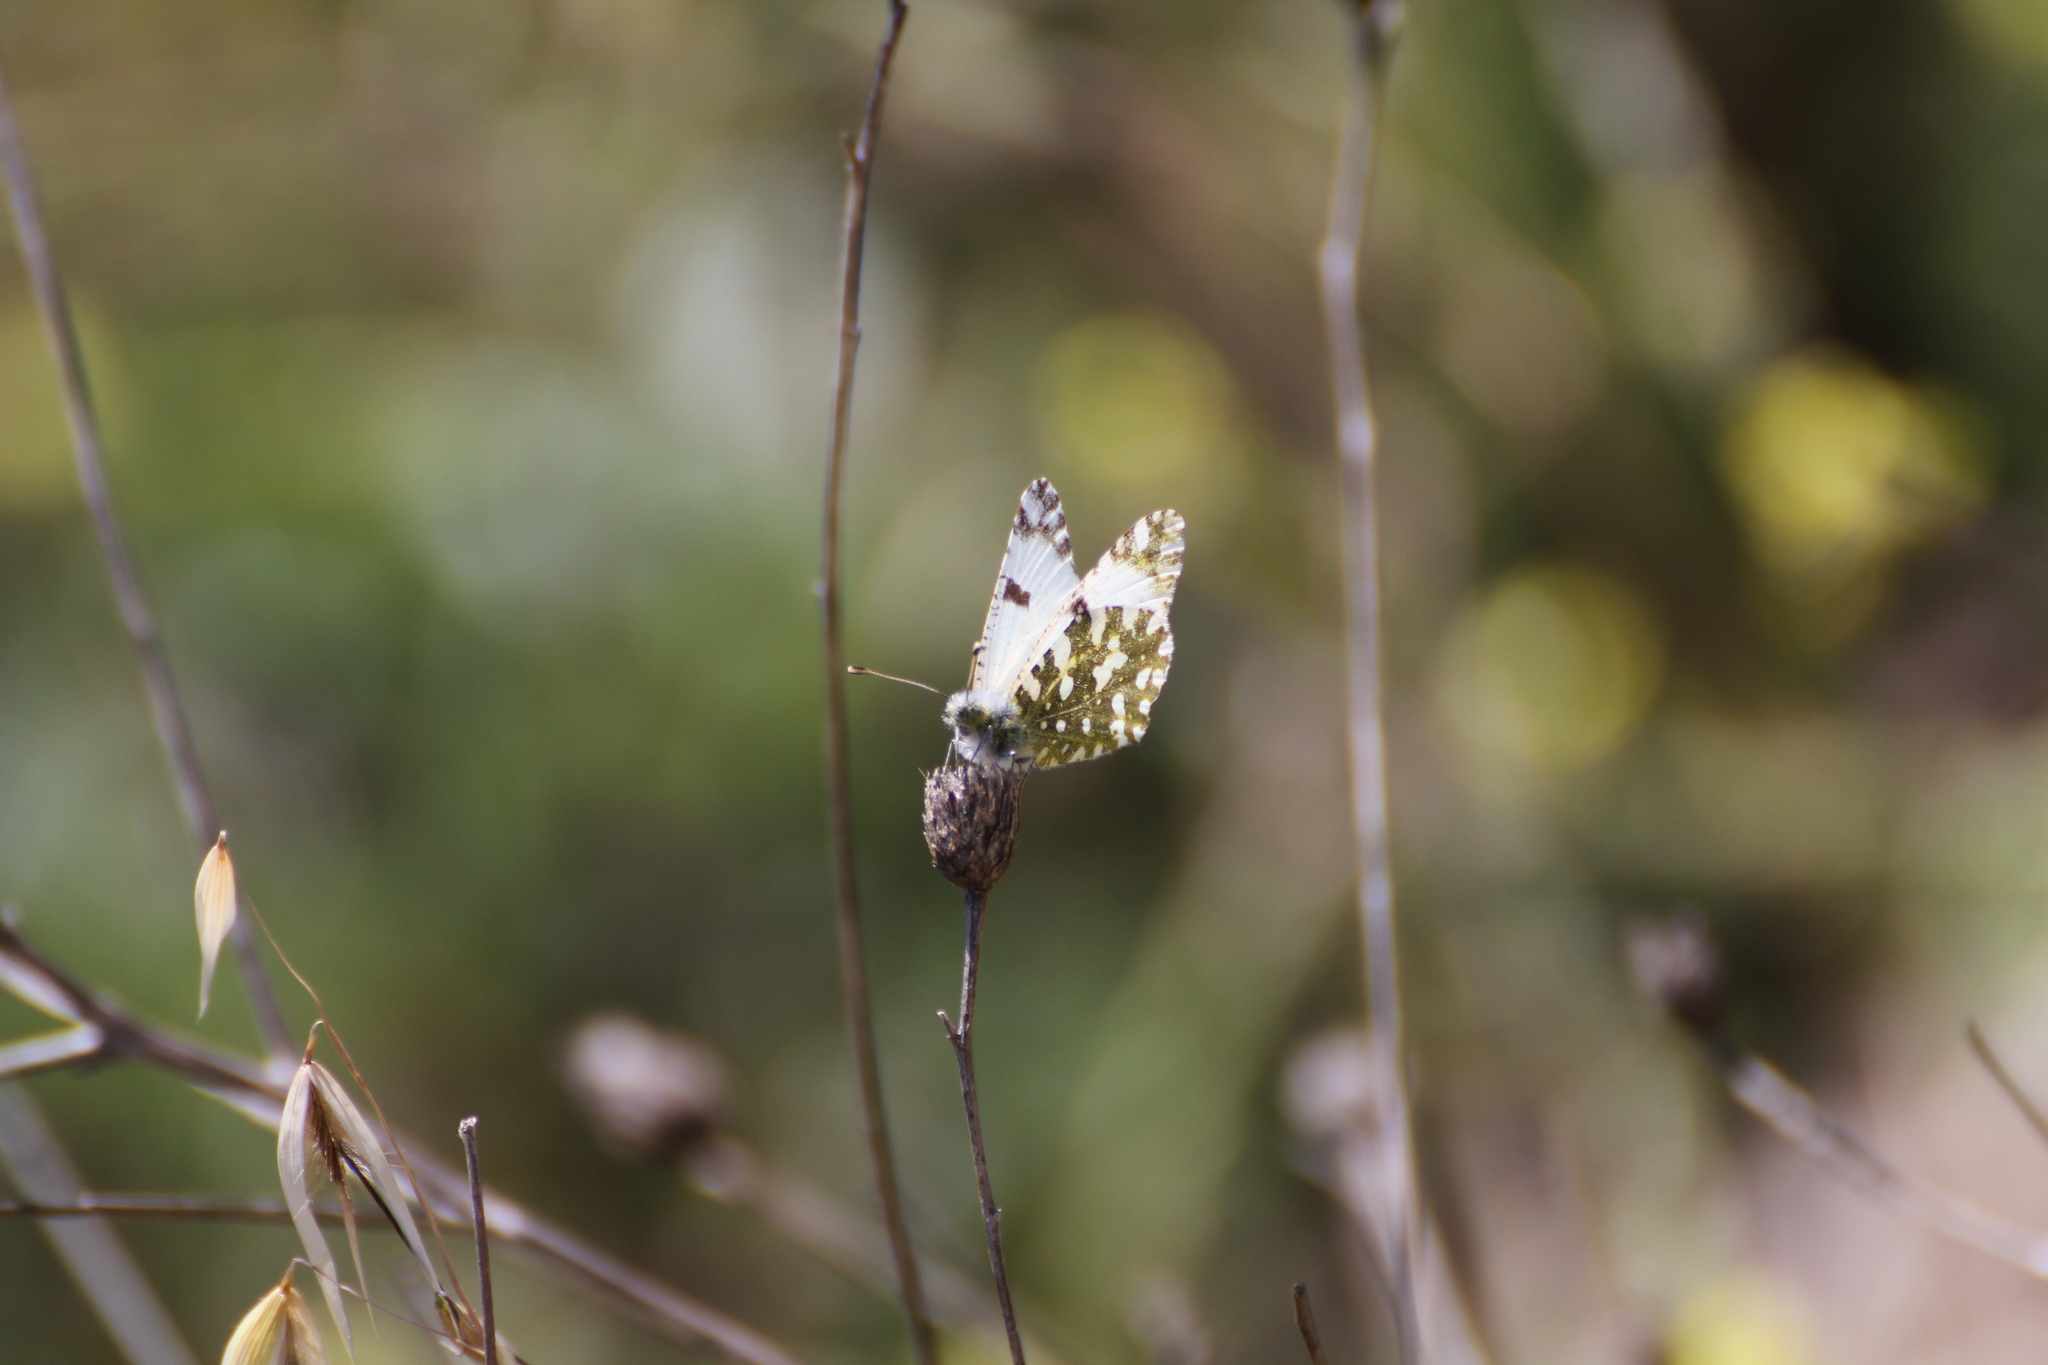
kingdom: Animalia
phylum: Arthropoda
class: Insecta
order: Lepidoptera
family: Pieridae
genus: Euchloe
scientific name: Euchloe crameri
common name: Western dappled white
